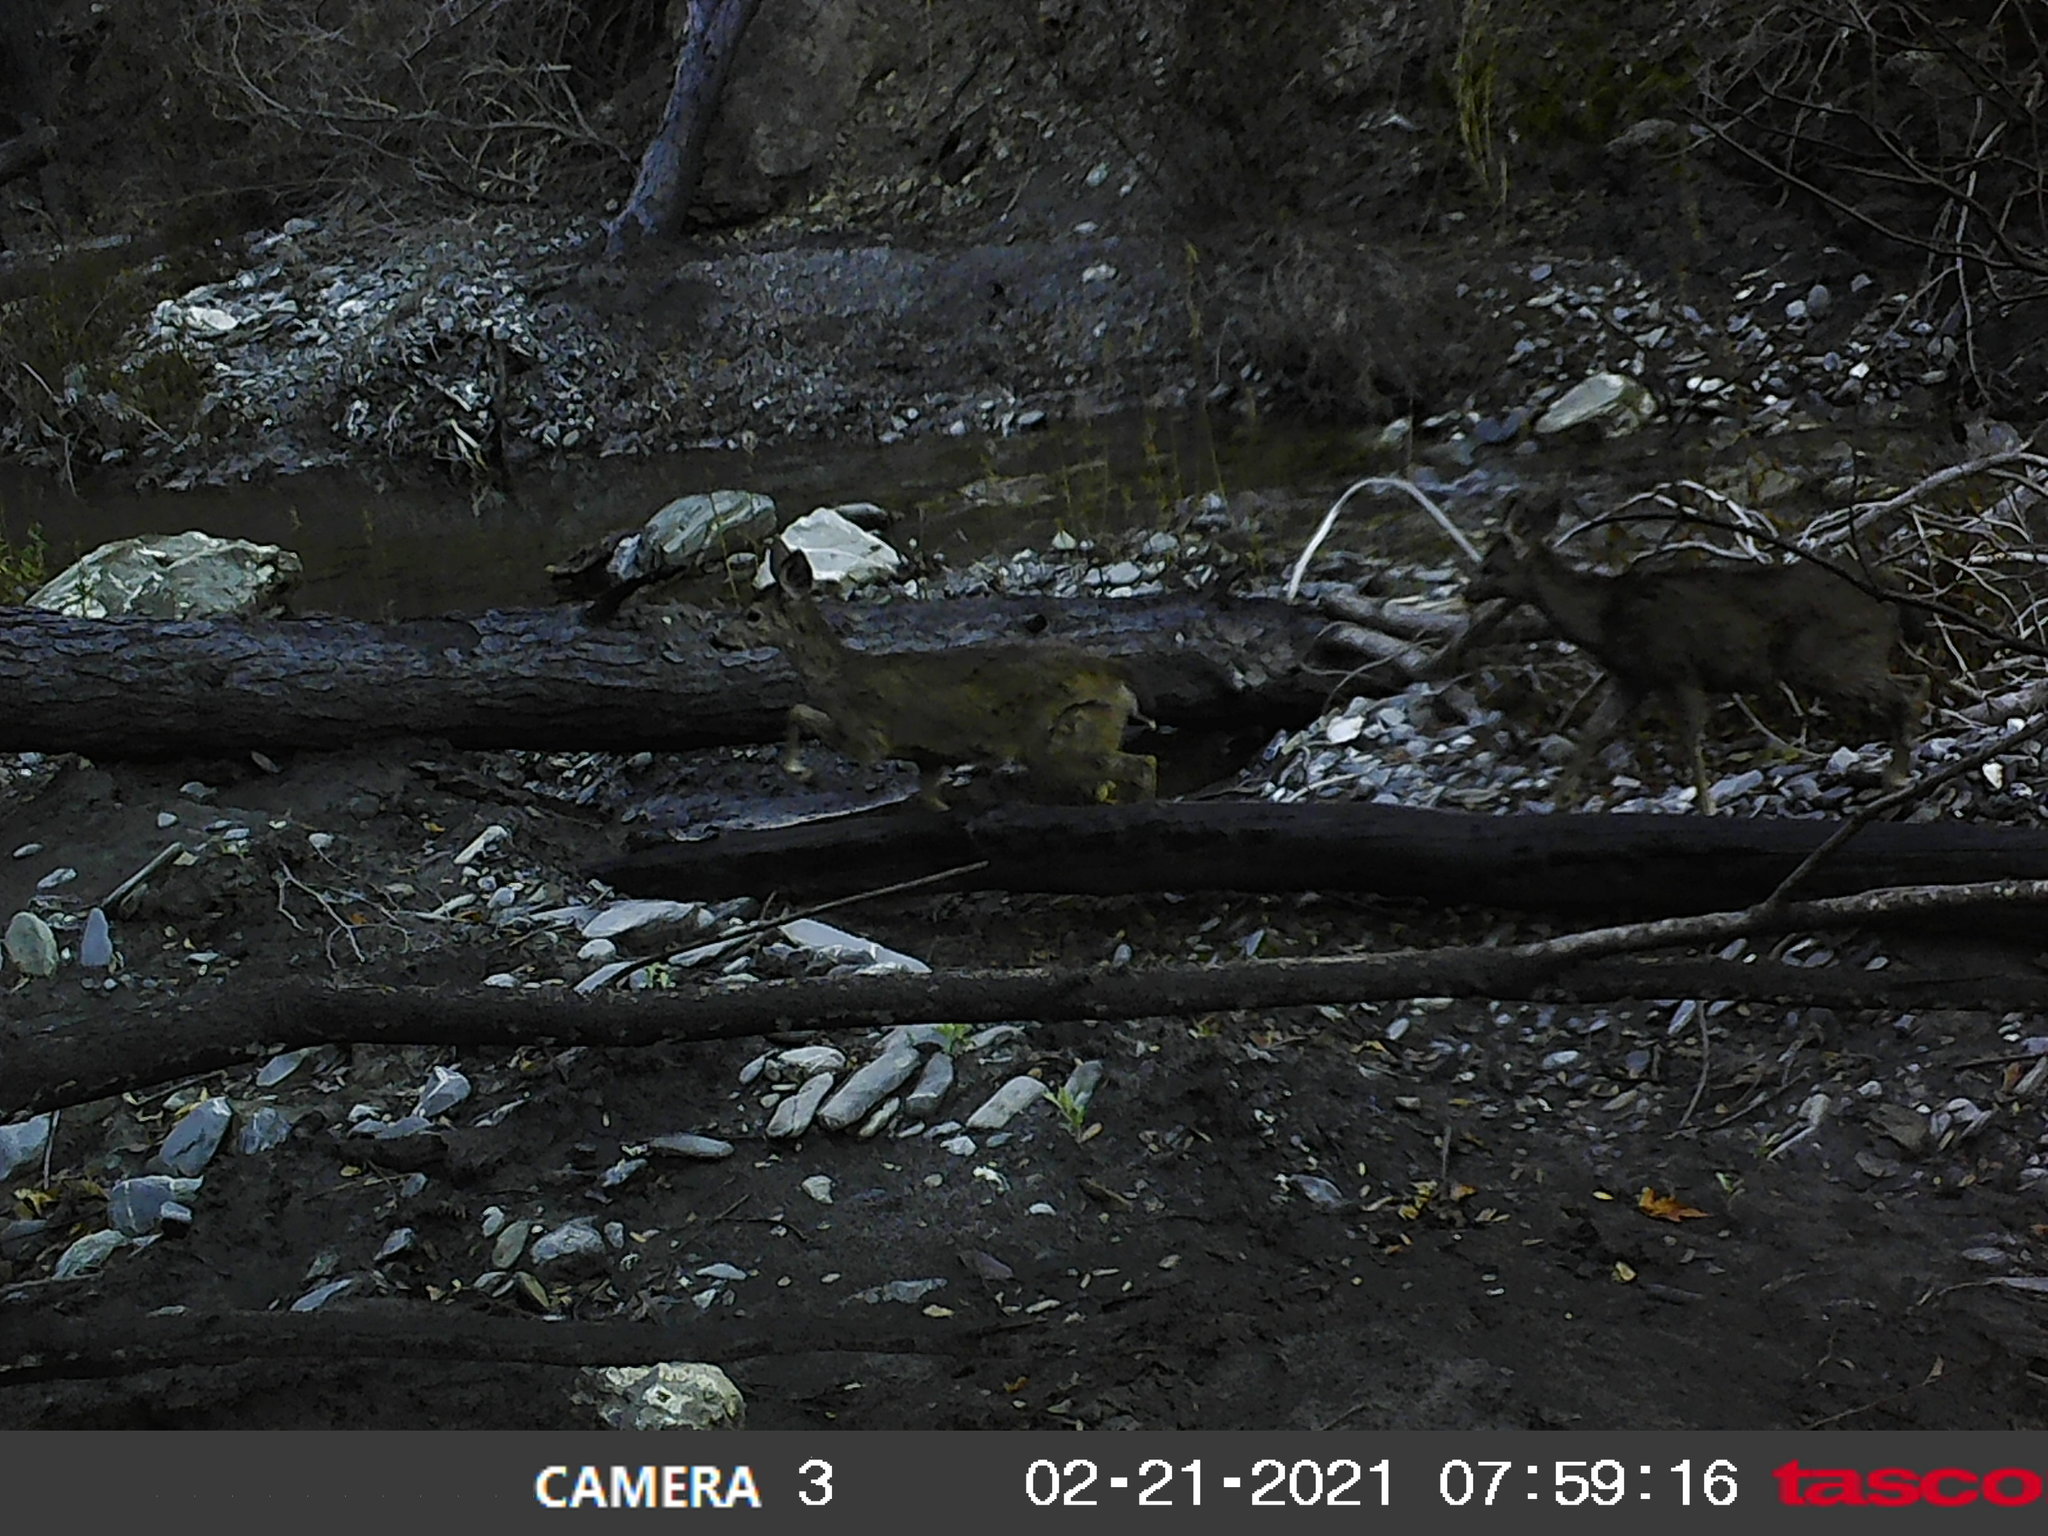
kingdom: Animalia
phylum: Chordata
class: Mammalia
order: Artiodactyla
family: Cervidae
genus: Odocoileus
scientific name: Odocoileus hemionus
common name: Mule deer
